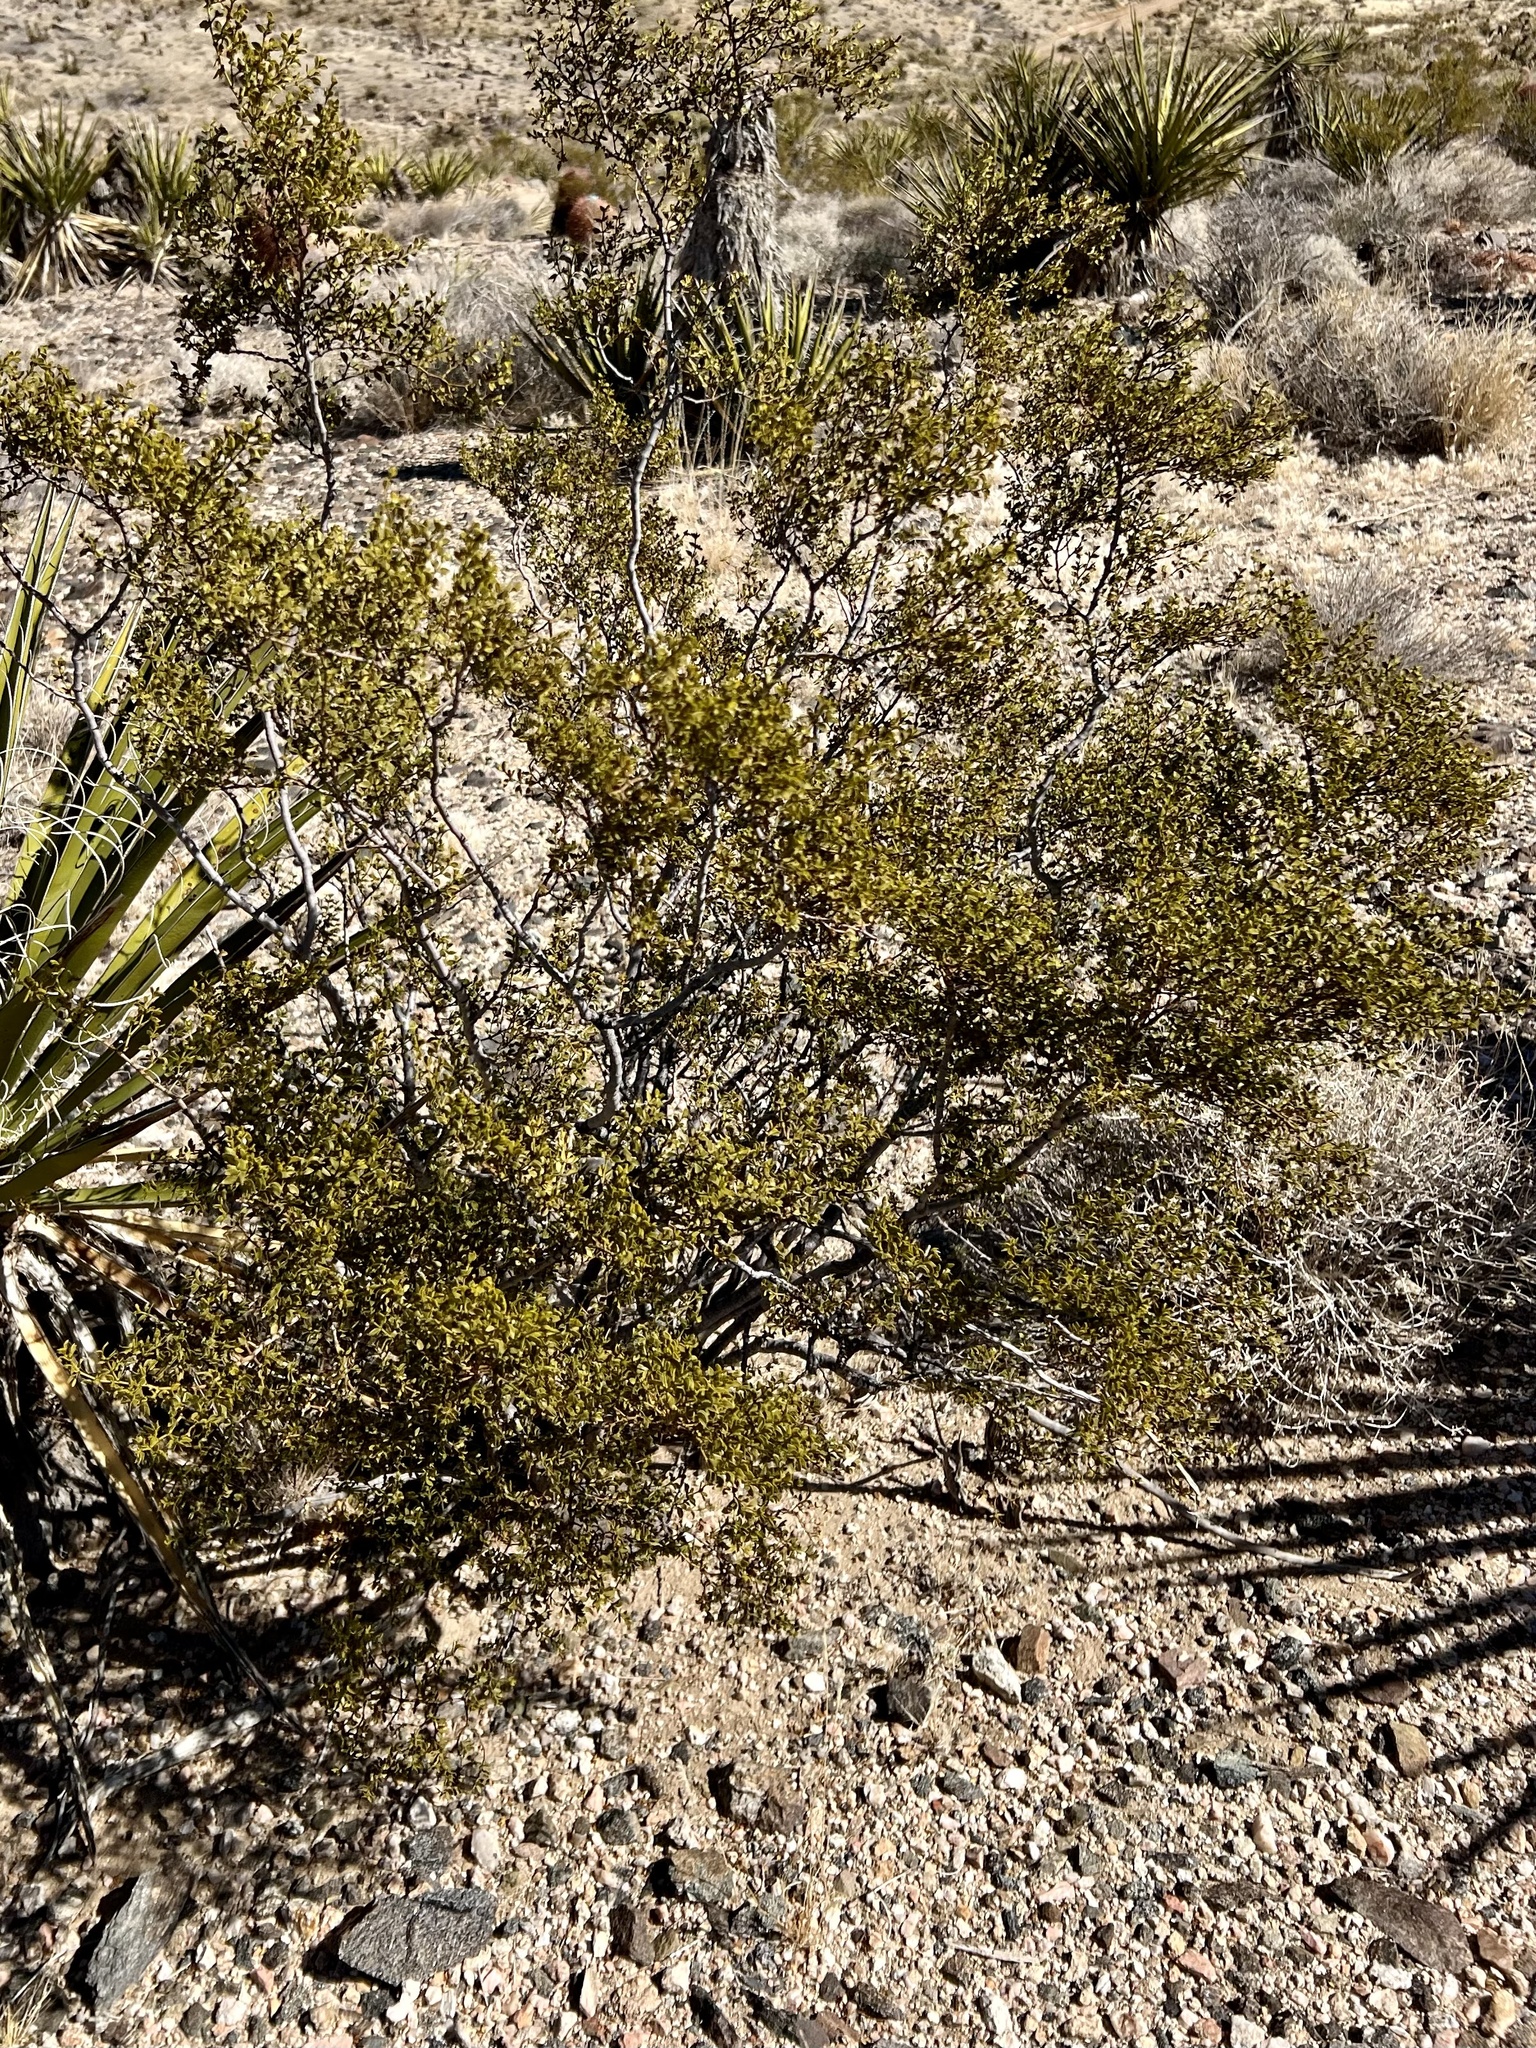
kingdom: Plantae
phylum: Tracheophyta
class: Magnoliopsida
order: Zygophyllales
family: Zygophyllaceae
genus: Larrea
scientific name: Larrea tridentata
